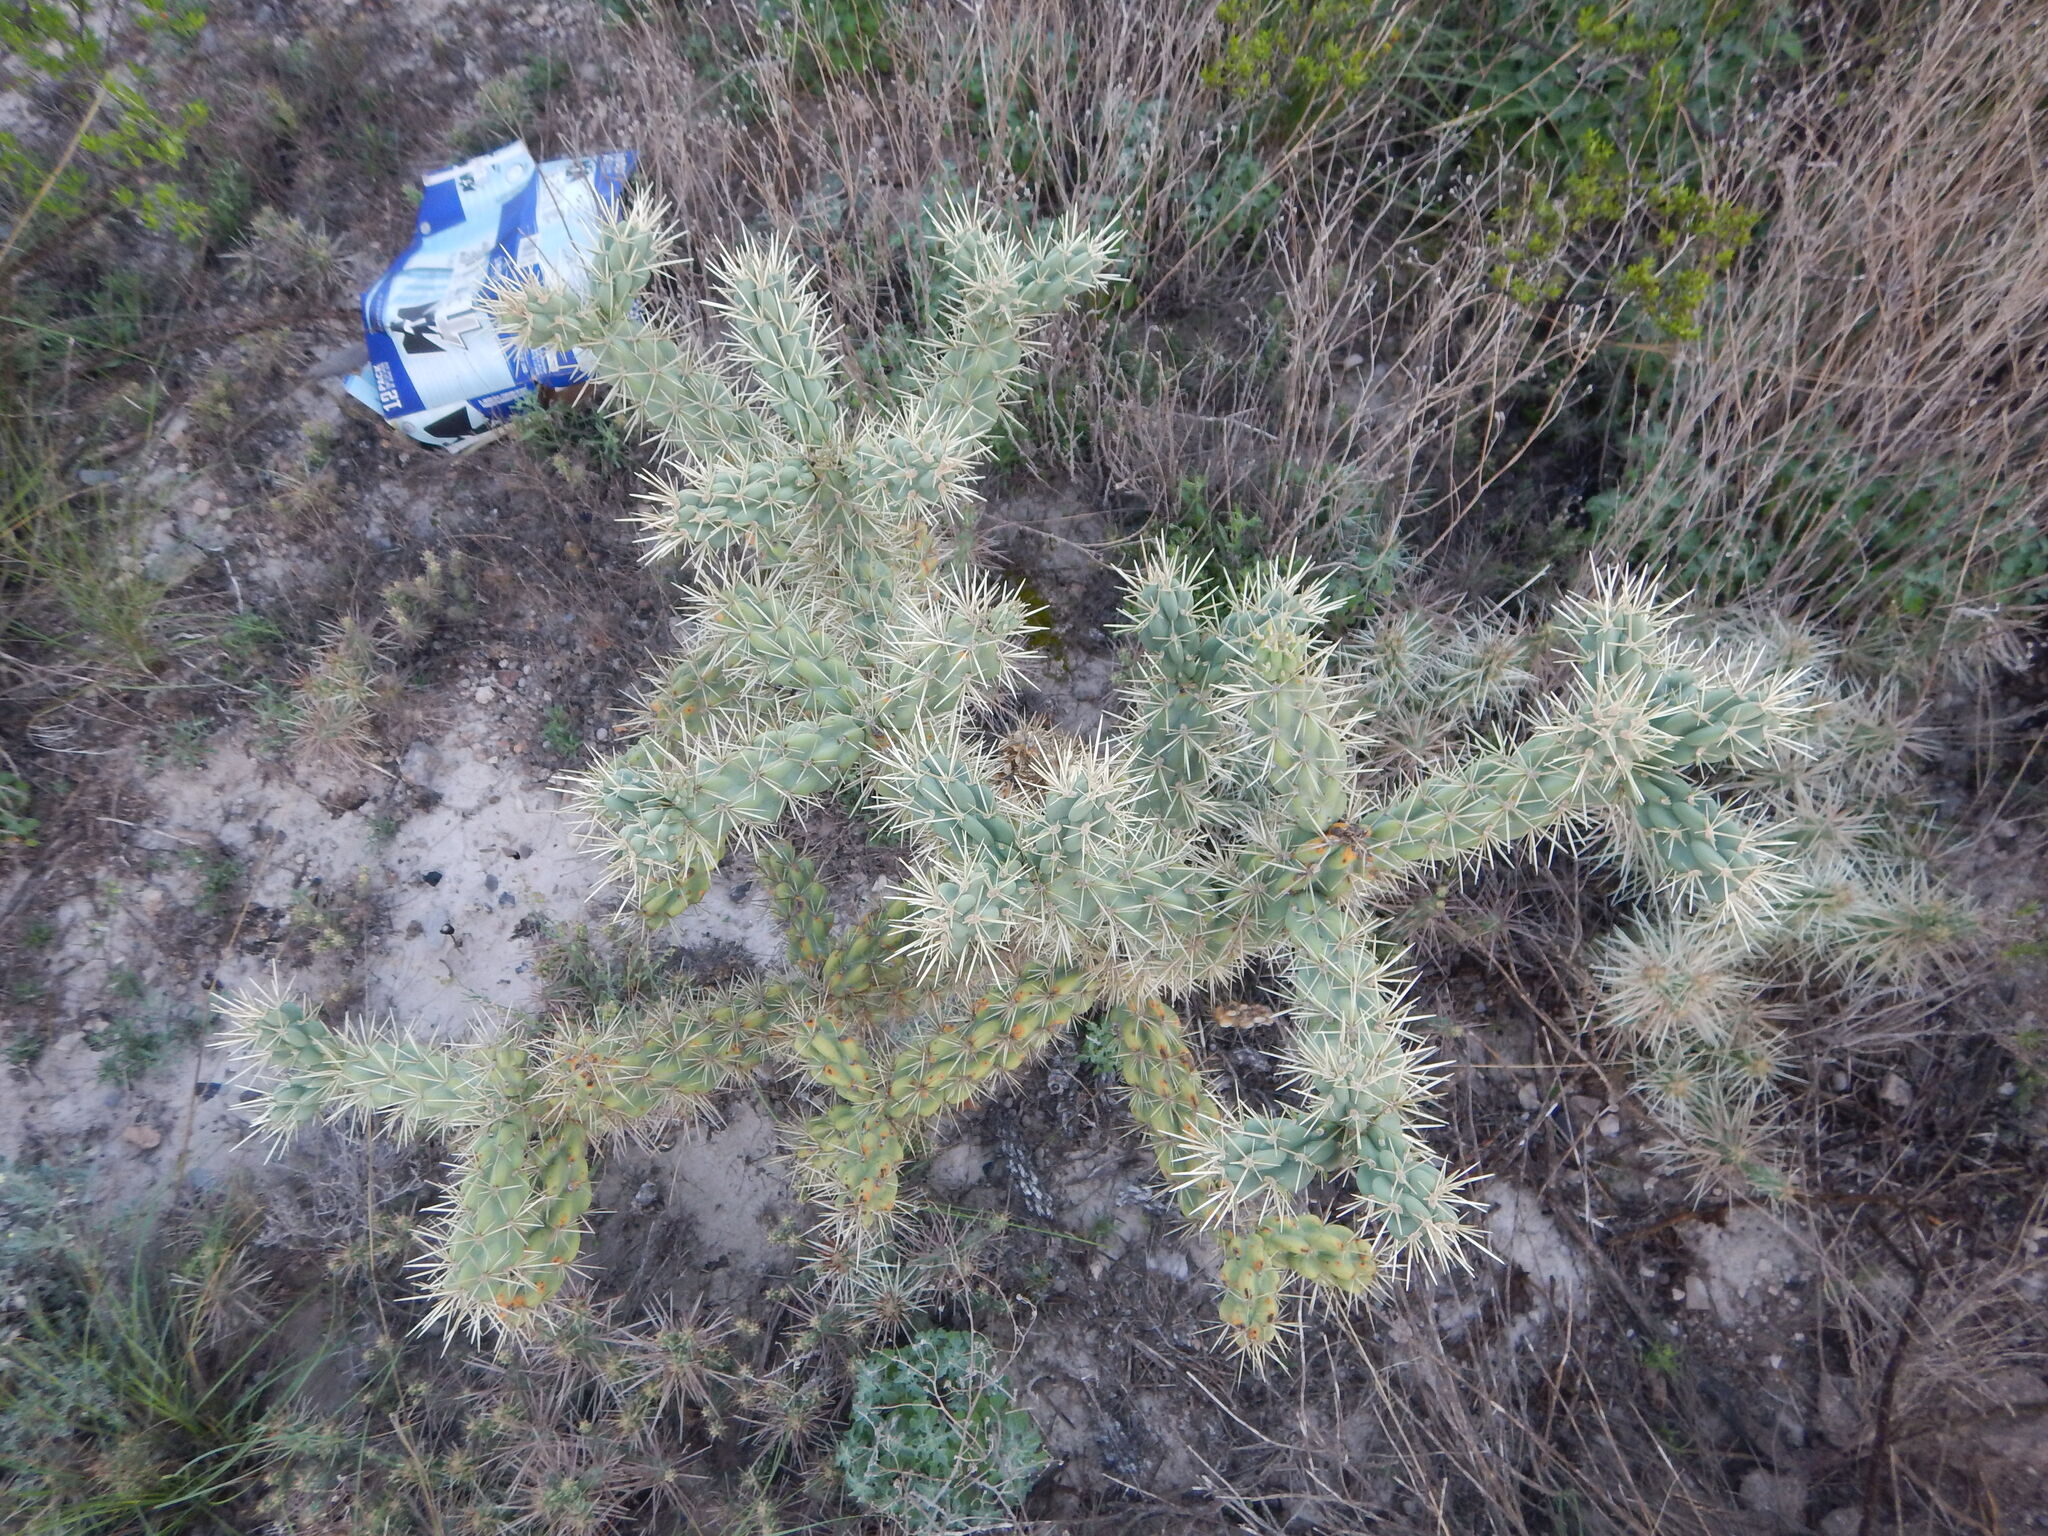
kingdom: Plantae
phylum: Tracheophyta
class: Magnoliopsida
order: Caryophyllales
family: Cactaceae
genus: Cylindropuntia
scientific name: Cylindropuntia imbricata
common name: Candelabrum cactus
